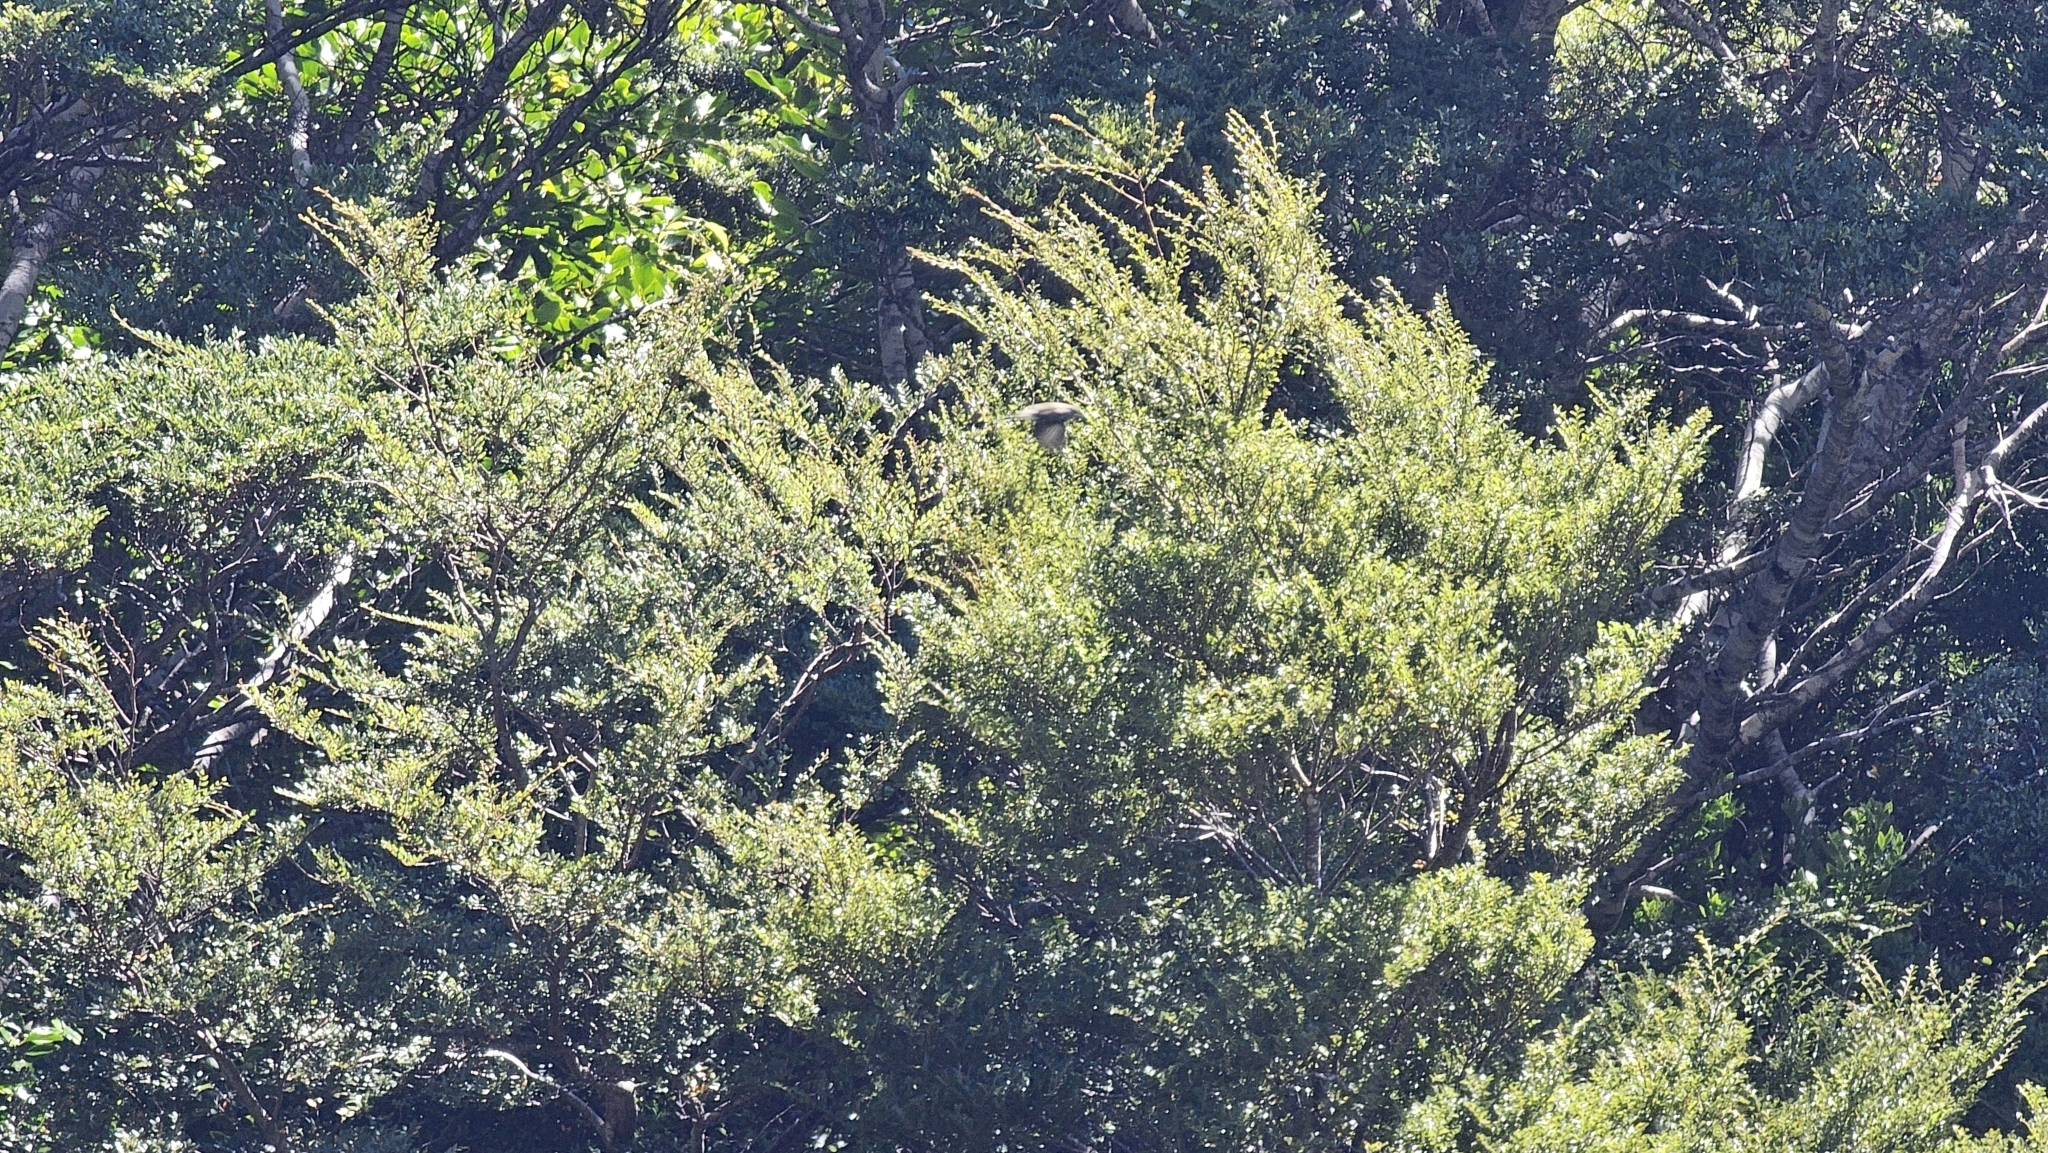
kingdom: Animalia
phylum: Chordata
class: Aves
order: Passeriformes
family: Acanthizidae
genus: Finschia
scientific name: Finschia novaeseelandiae
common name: Pipipi
